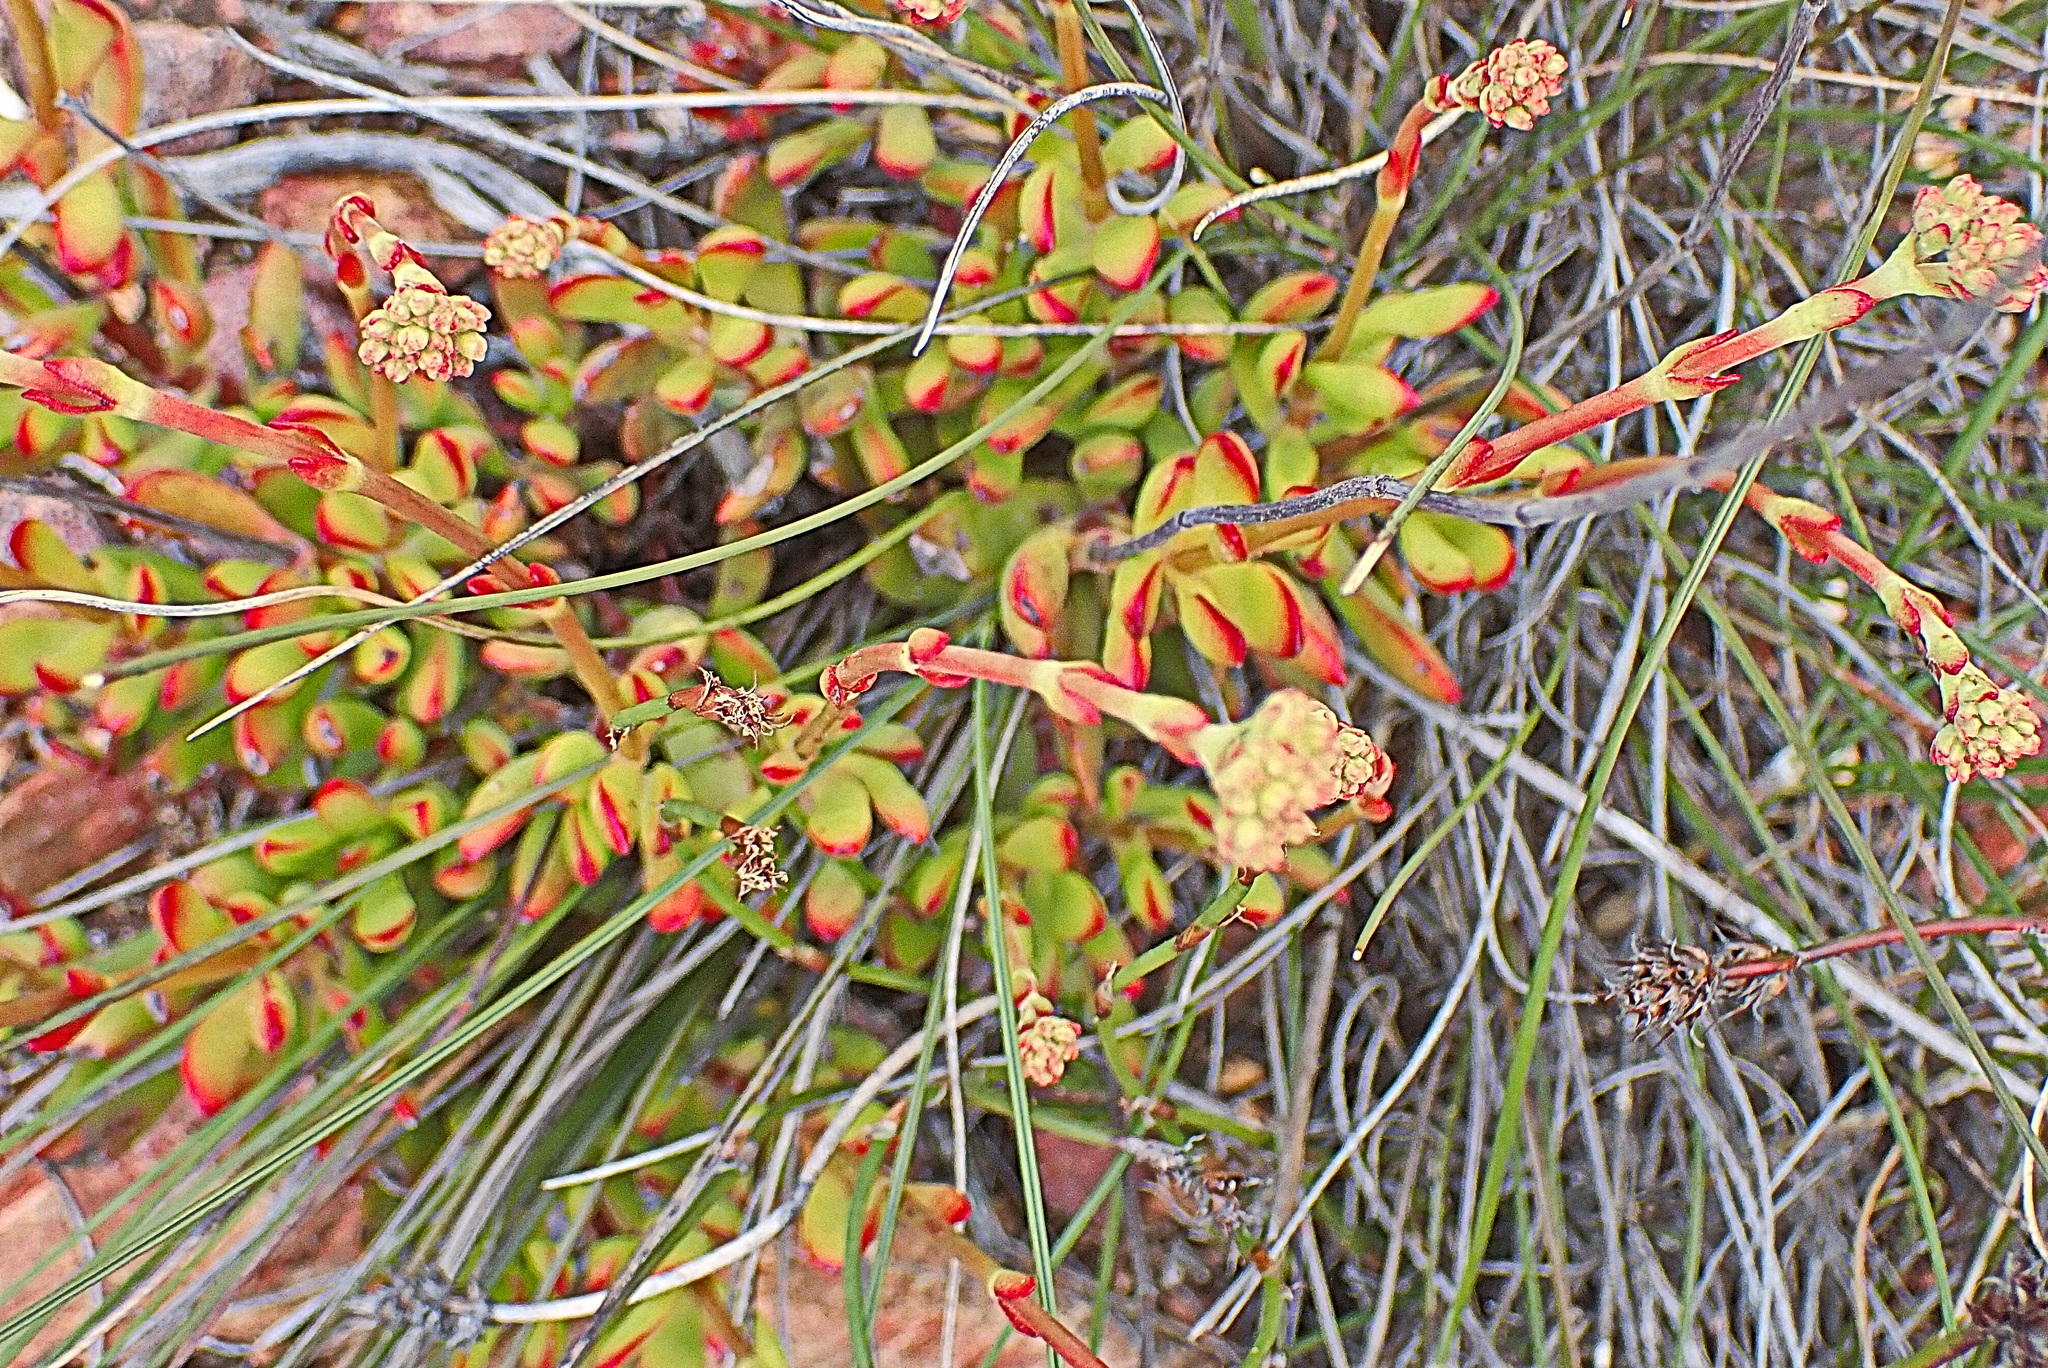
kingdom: Plantae
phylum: Tracheophyta
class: Magnoliopsida
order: Saxifragales
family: Crassulaceae
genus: Crassula
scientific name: Crassula atropurpurea
